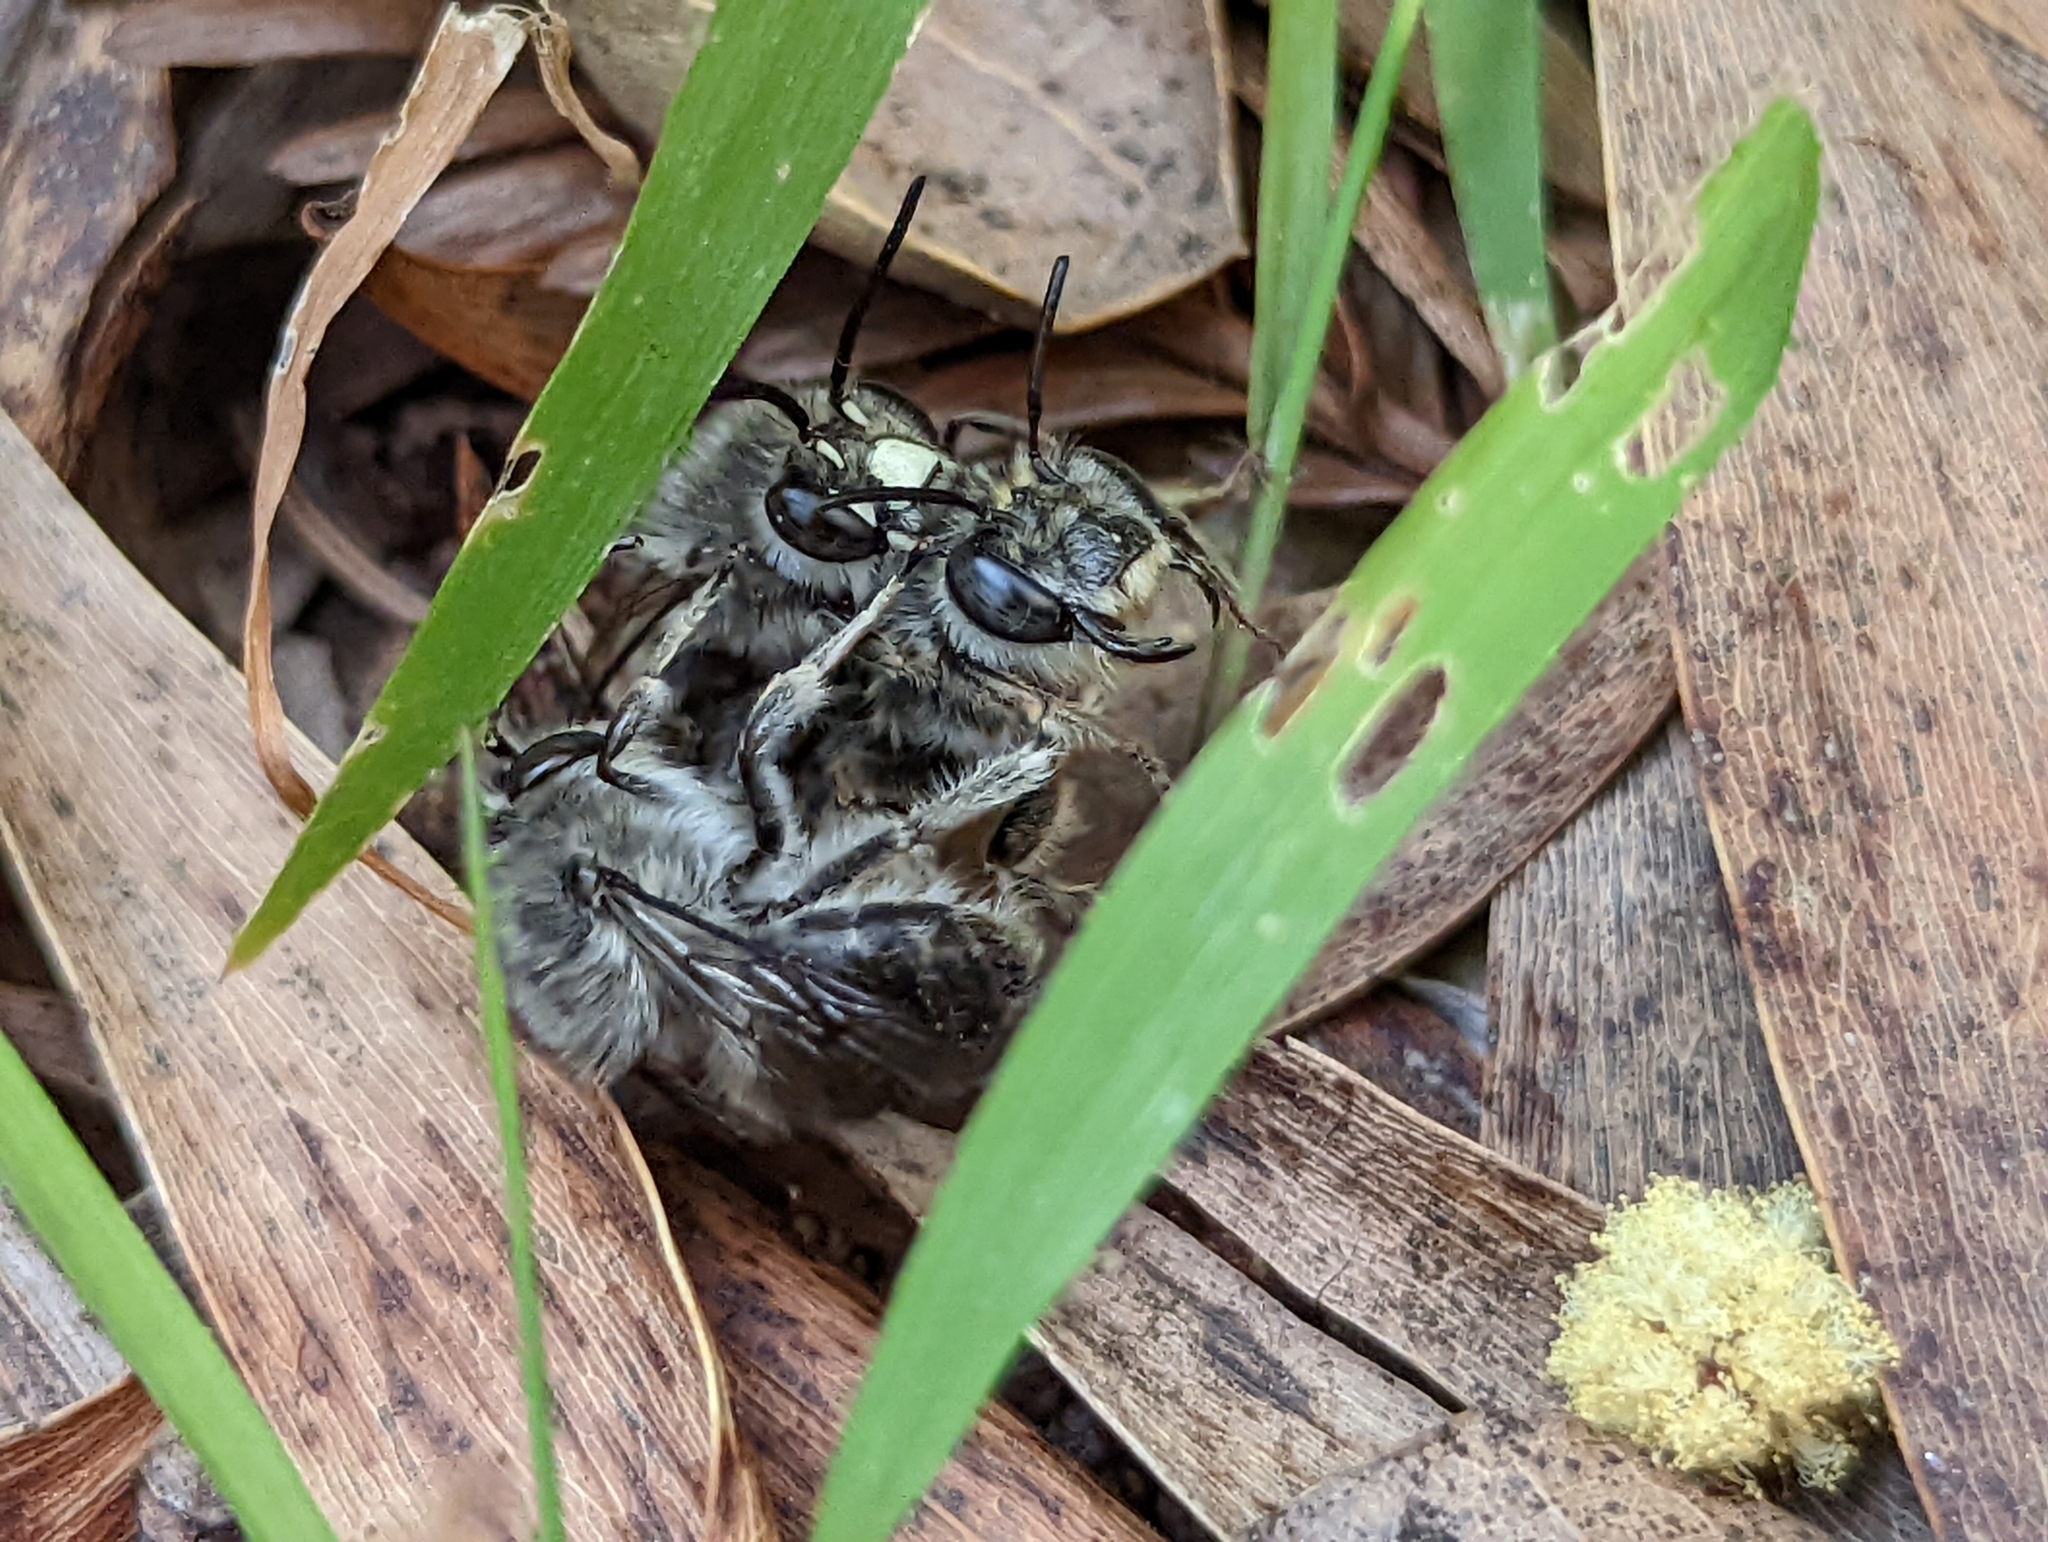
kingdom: Animalia
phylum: Arthropoda
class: Insecta
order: Hymenoptera
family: Apidae
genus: Habropoda
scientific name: Habropoda depressa
